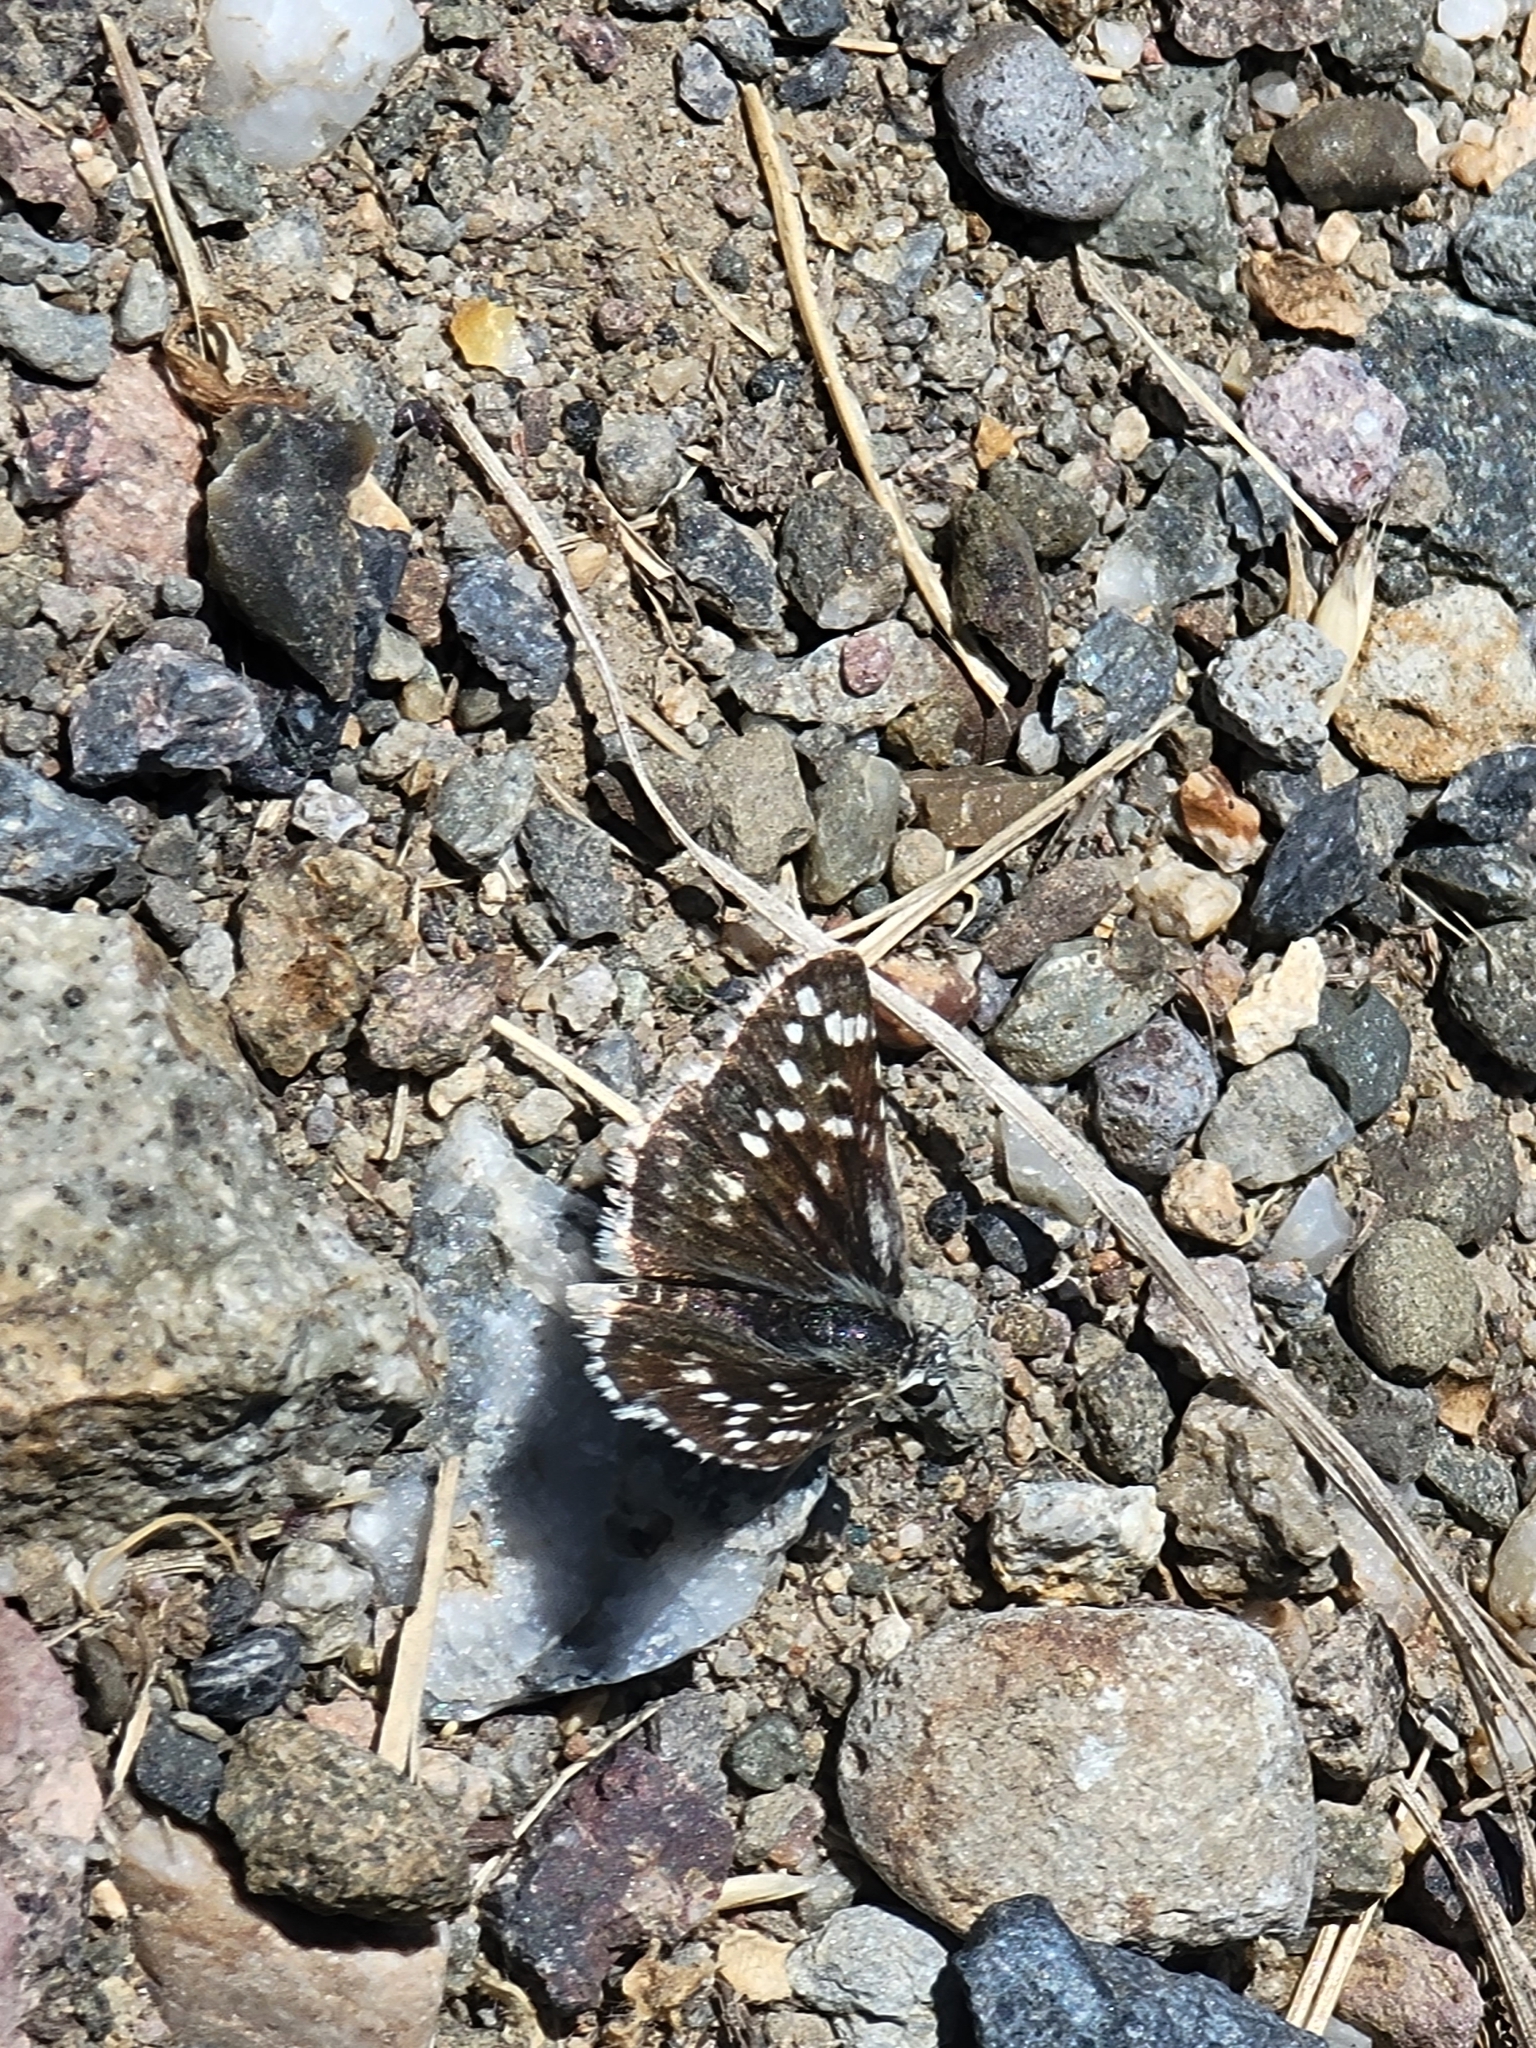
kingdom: Animalia
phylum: Arthropoda
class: Insecta
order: Lepidoptera
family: Hesperiidae
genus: Pyrgus
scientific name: Pyrgus scriptura
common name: Small checkered-skipper
